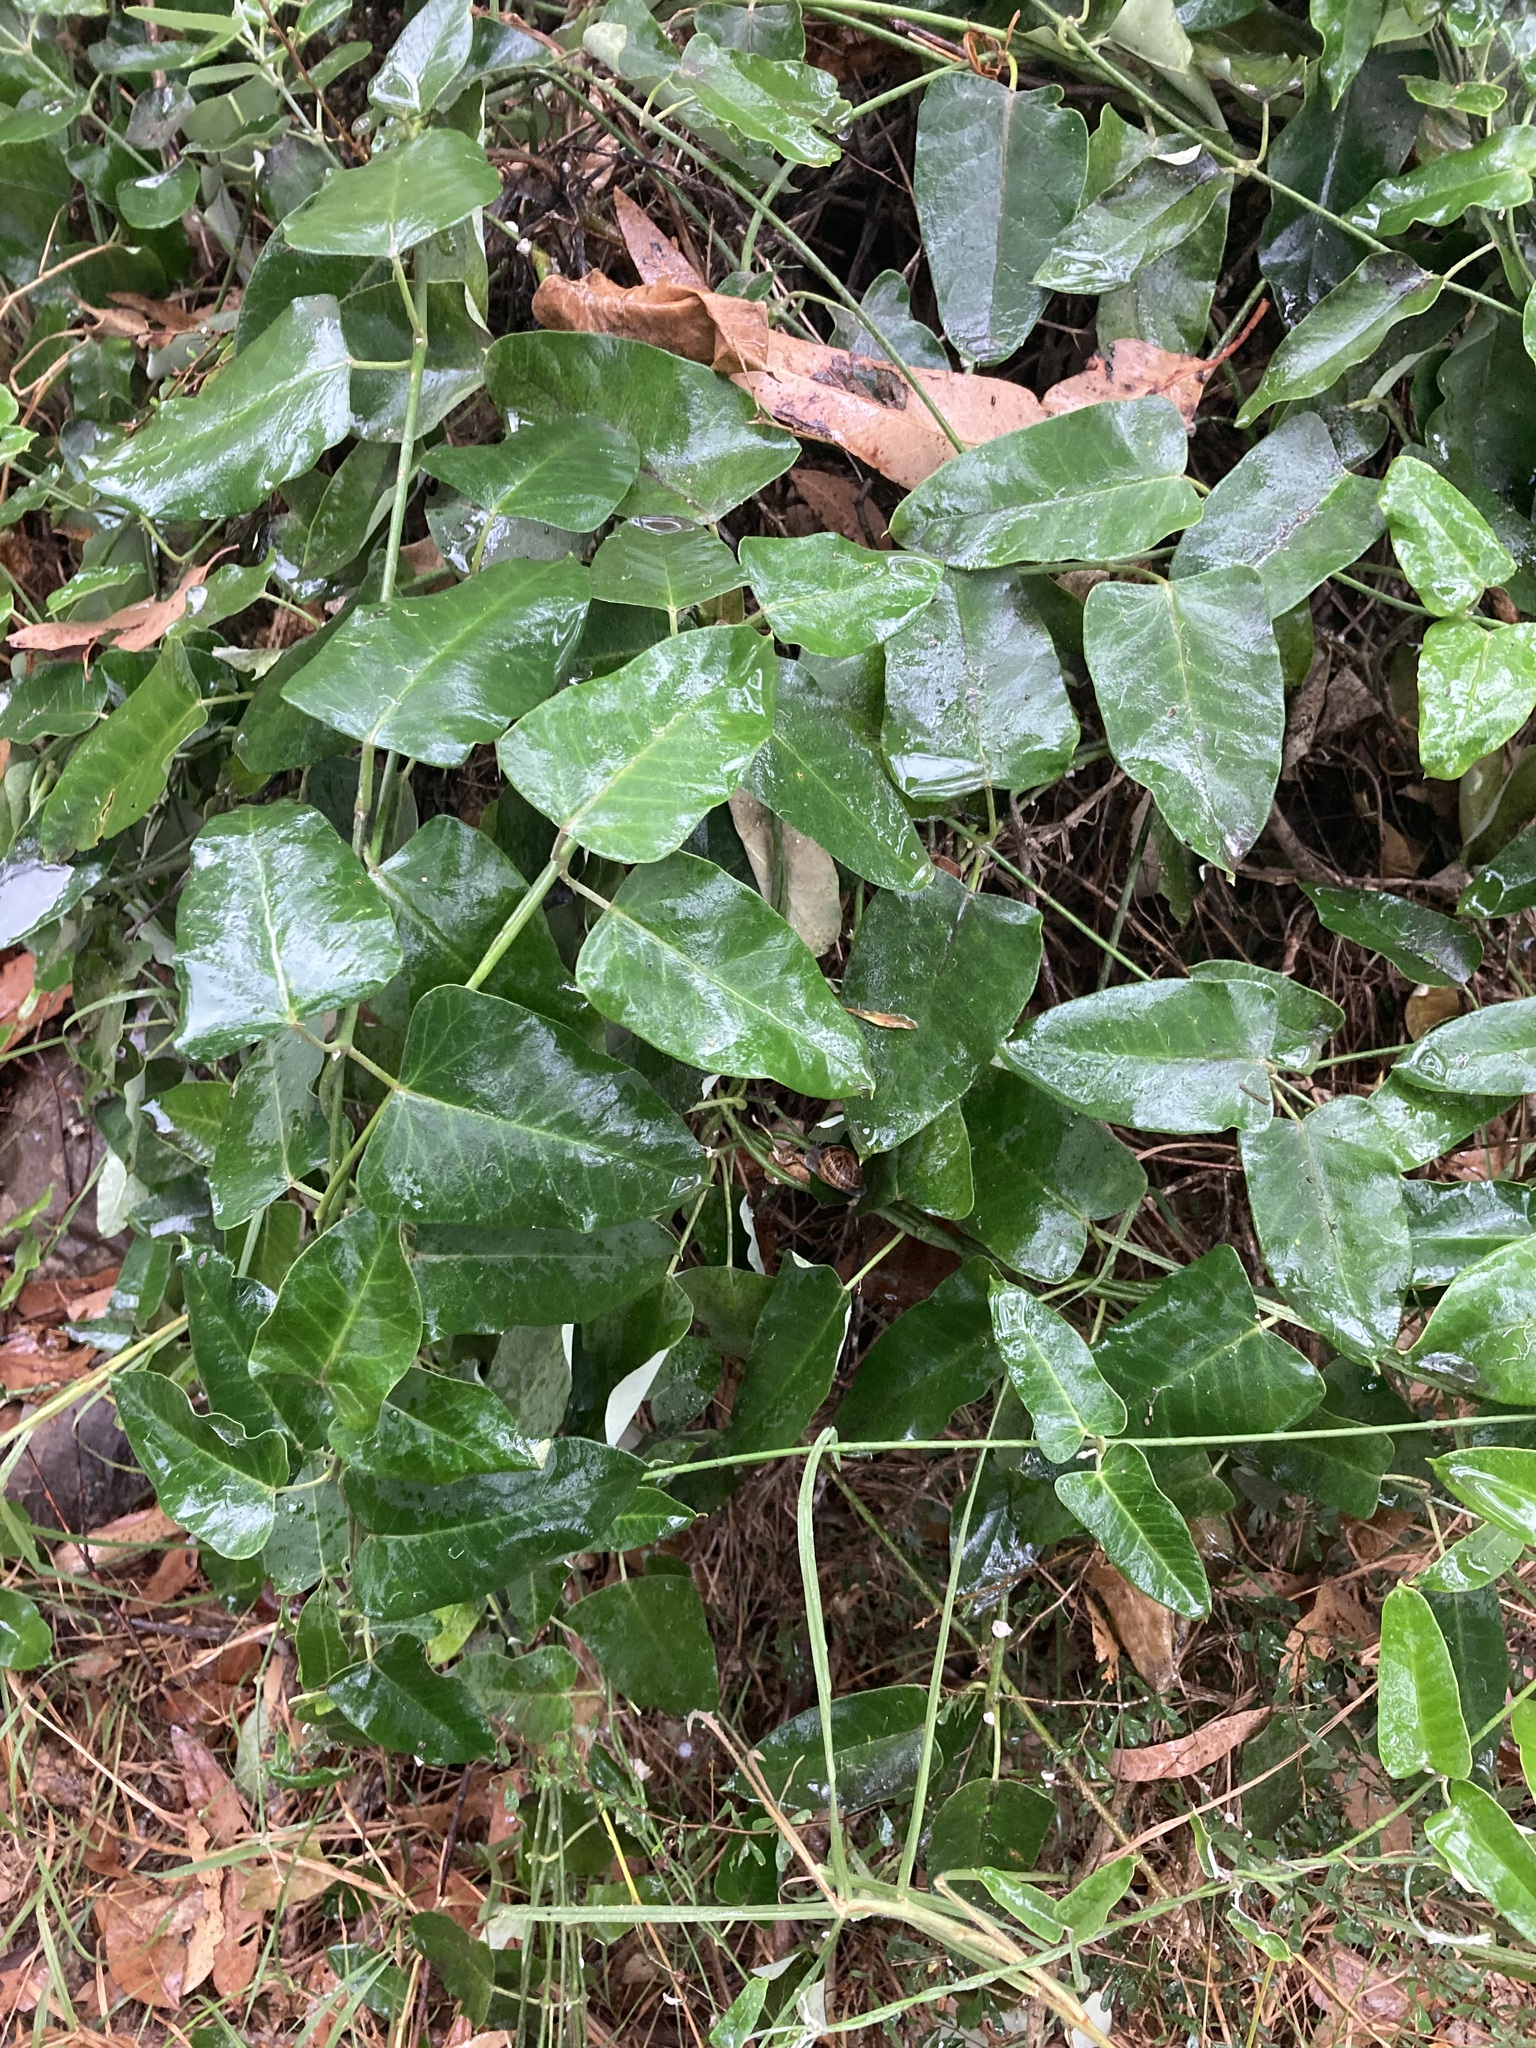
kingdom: Plantae
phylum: Tracheophyta
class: Magnoliopsida
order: Gentianales
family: Apocynaceae
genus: Araujia
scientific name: Araujia sericifera
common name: White bladderflower
